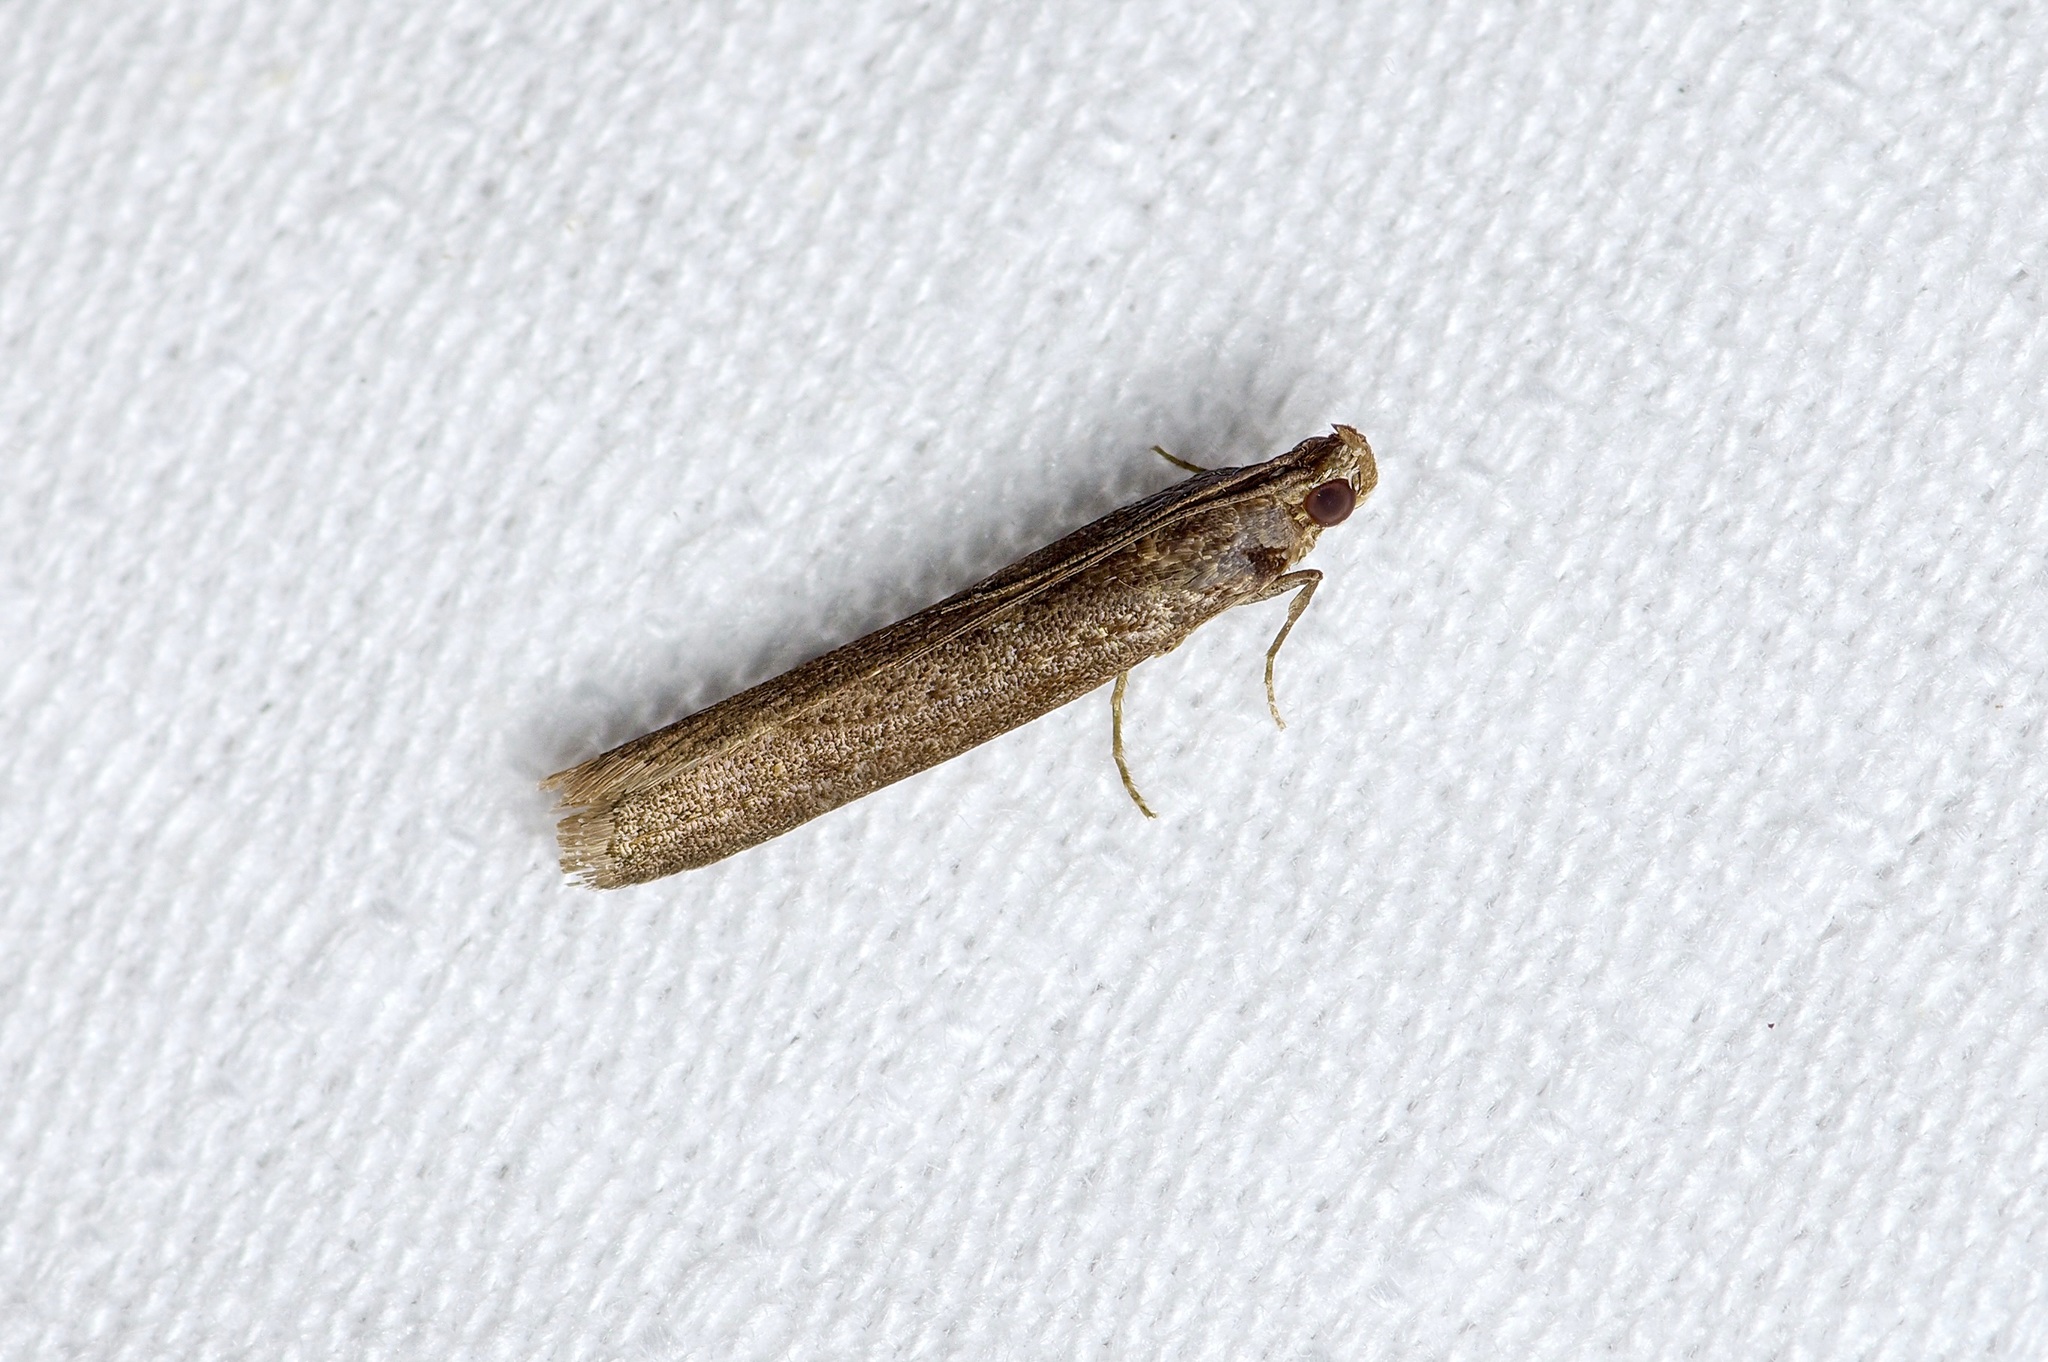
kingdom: Animalia
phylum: Arthropoda
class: Insecta
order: Lepidoptera
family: Pyralidae
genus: Elasmopalpus
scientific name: Elasmopalpus lignosella
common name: Lesser cornstalk borer
